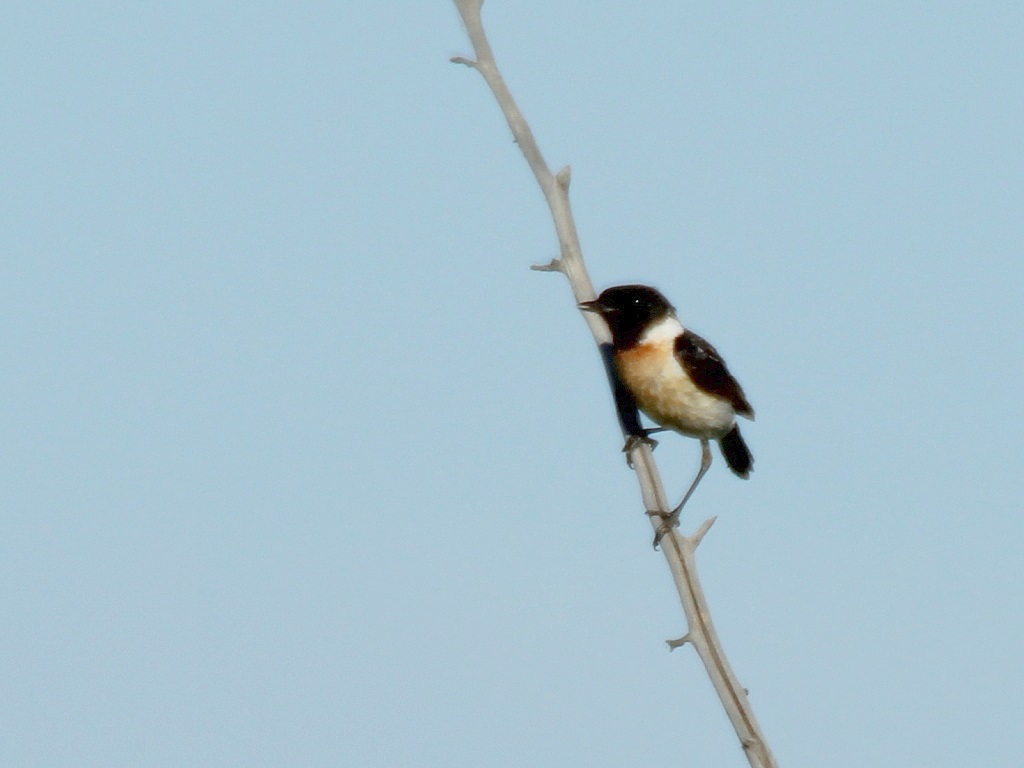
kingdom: Animalia
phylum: Chordata
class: Aves
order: Passeriformes
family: Muscicapidae
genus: Saxicola
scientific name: Saxicola maurus
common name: Siberian stonechat
